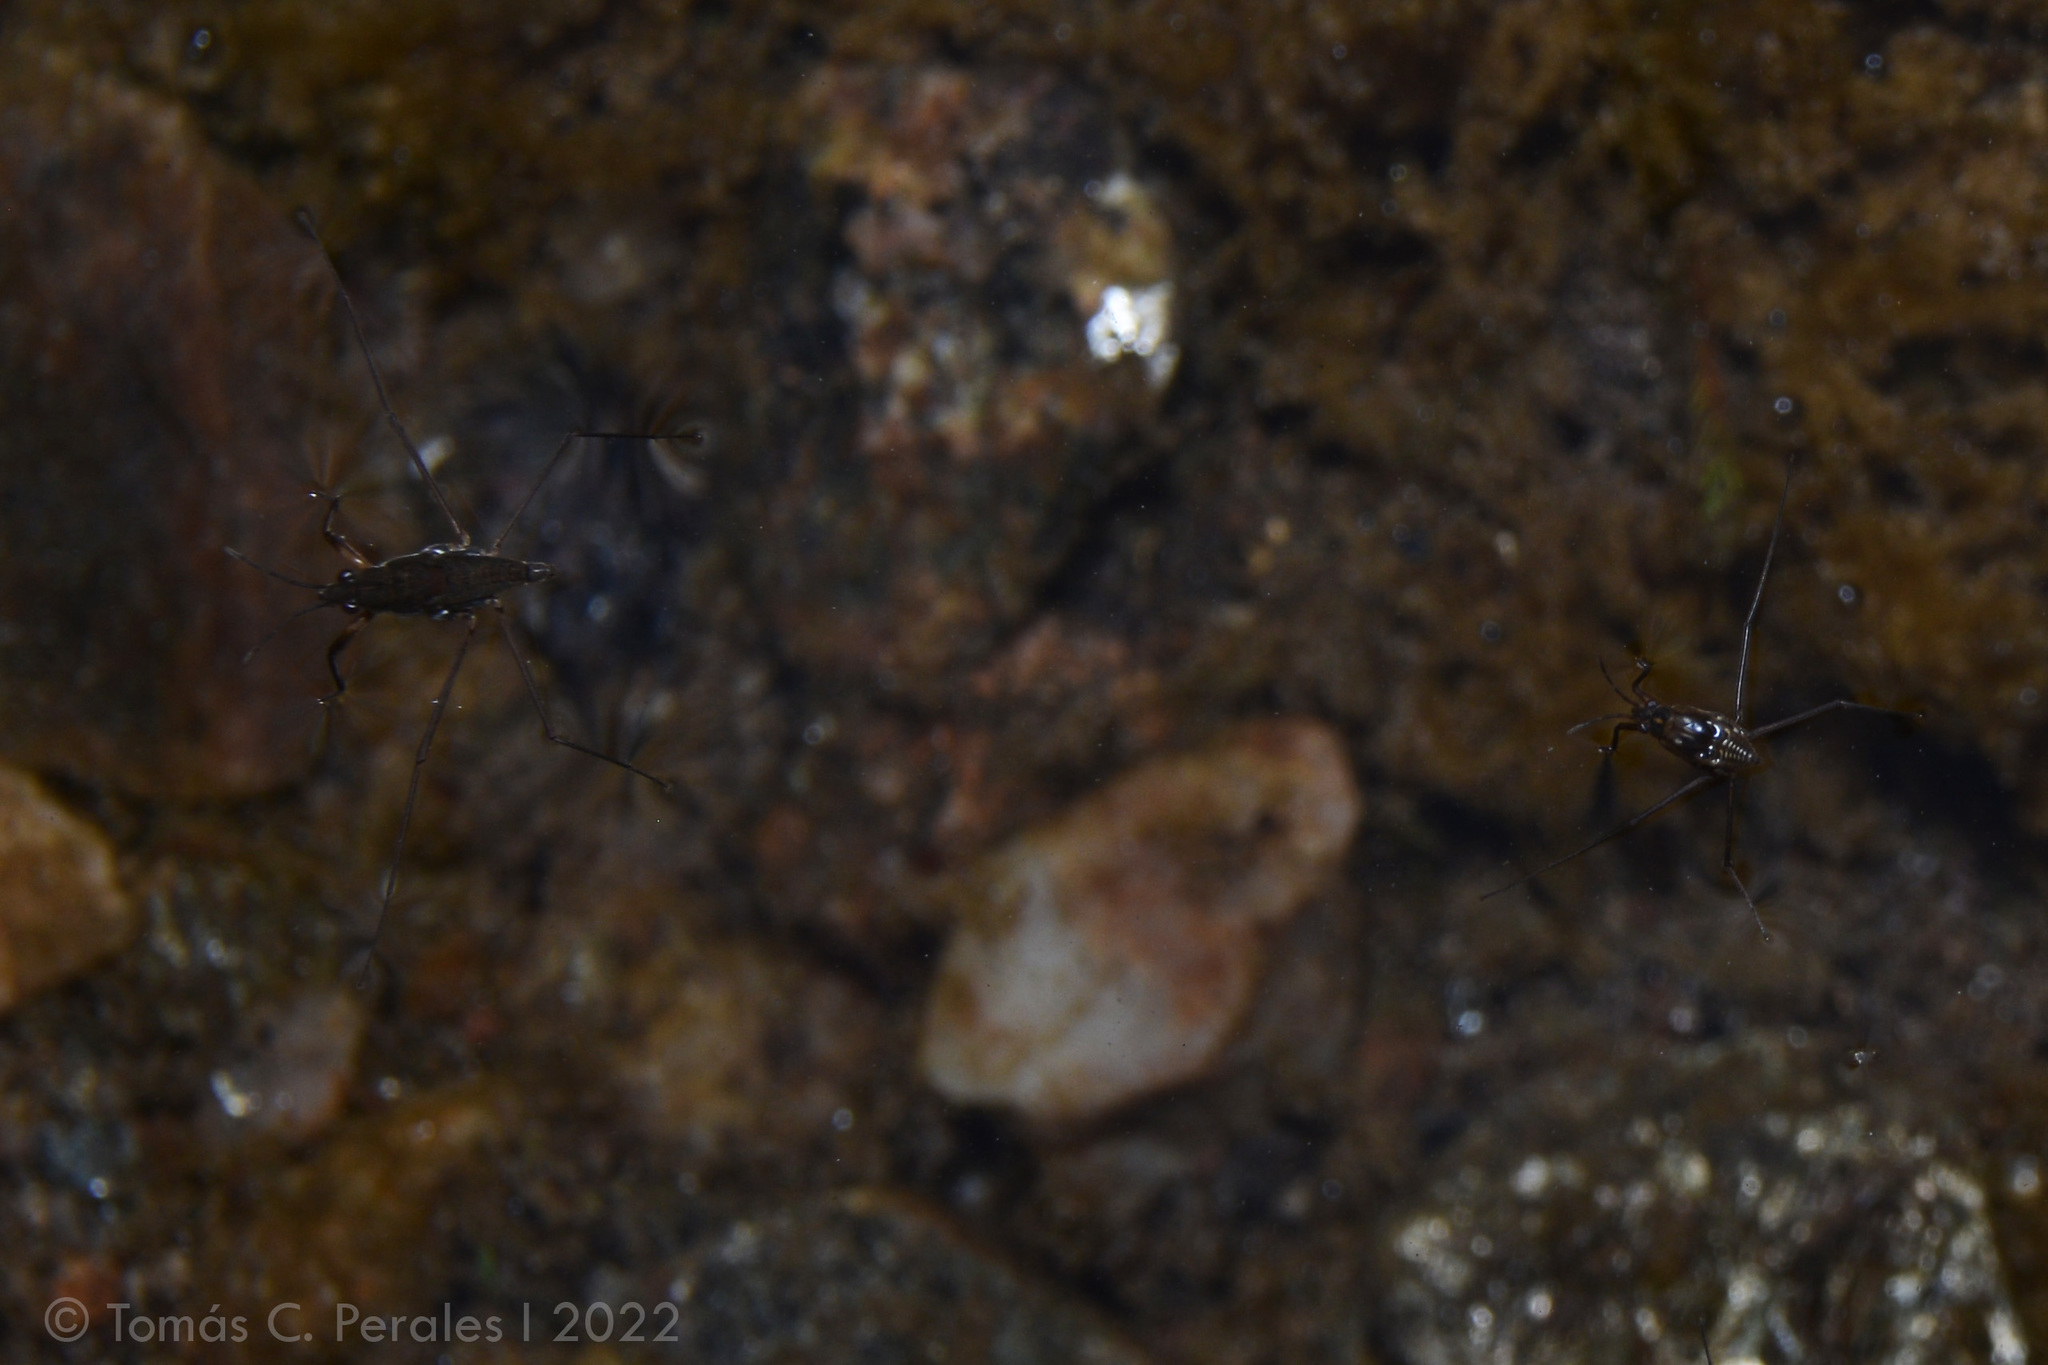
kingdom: Animalia
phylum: Arthropoda
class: Insecta
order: Hemiptera
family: Gerridae
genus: Eurygerris
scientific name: Eurygerris fuscinervis
